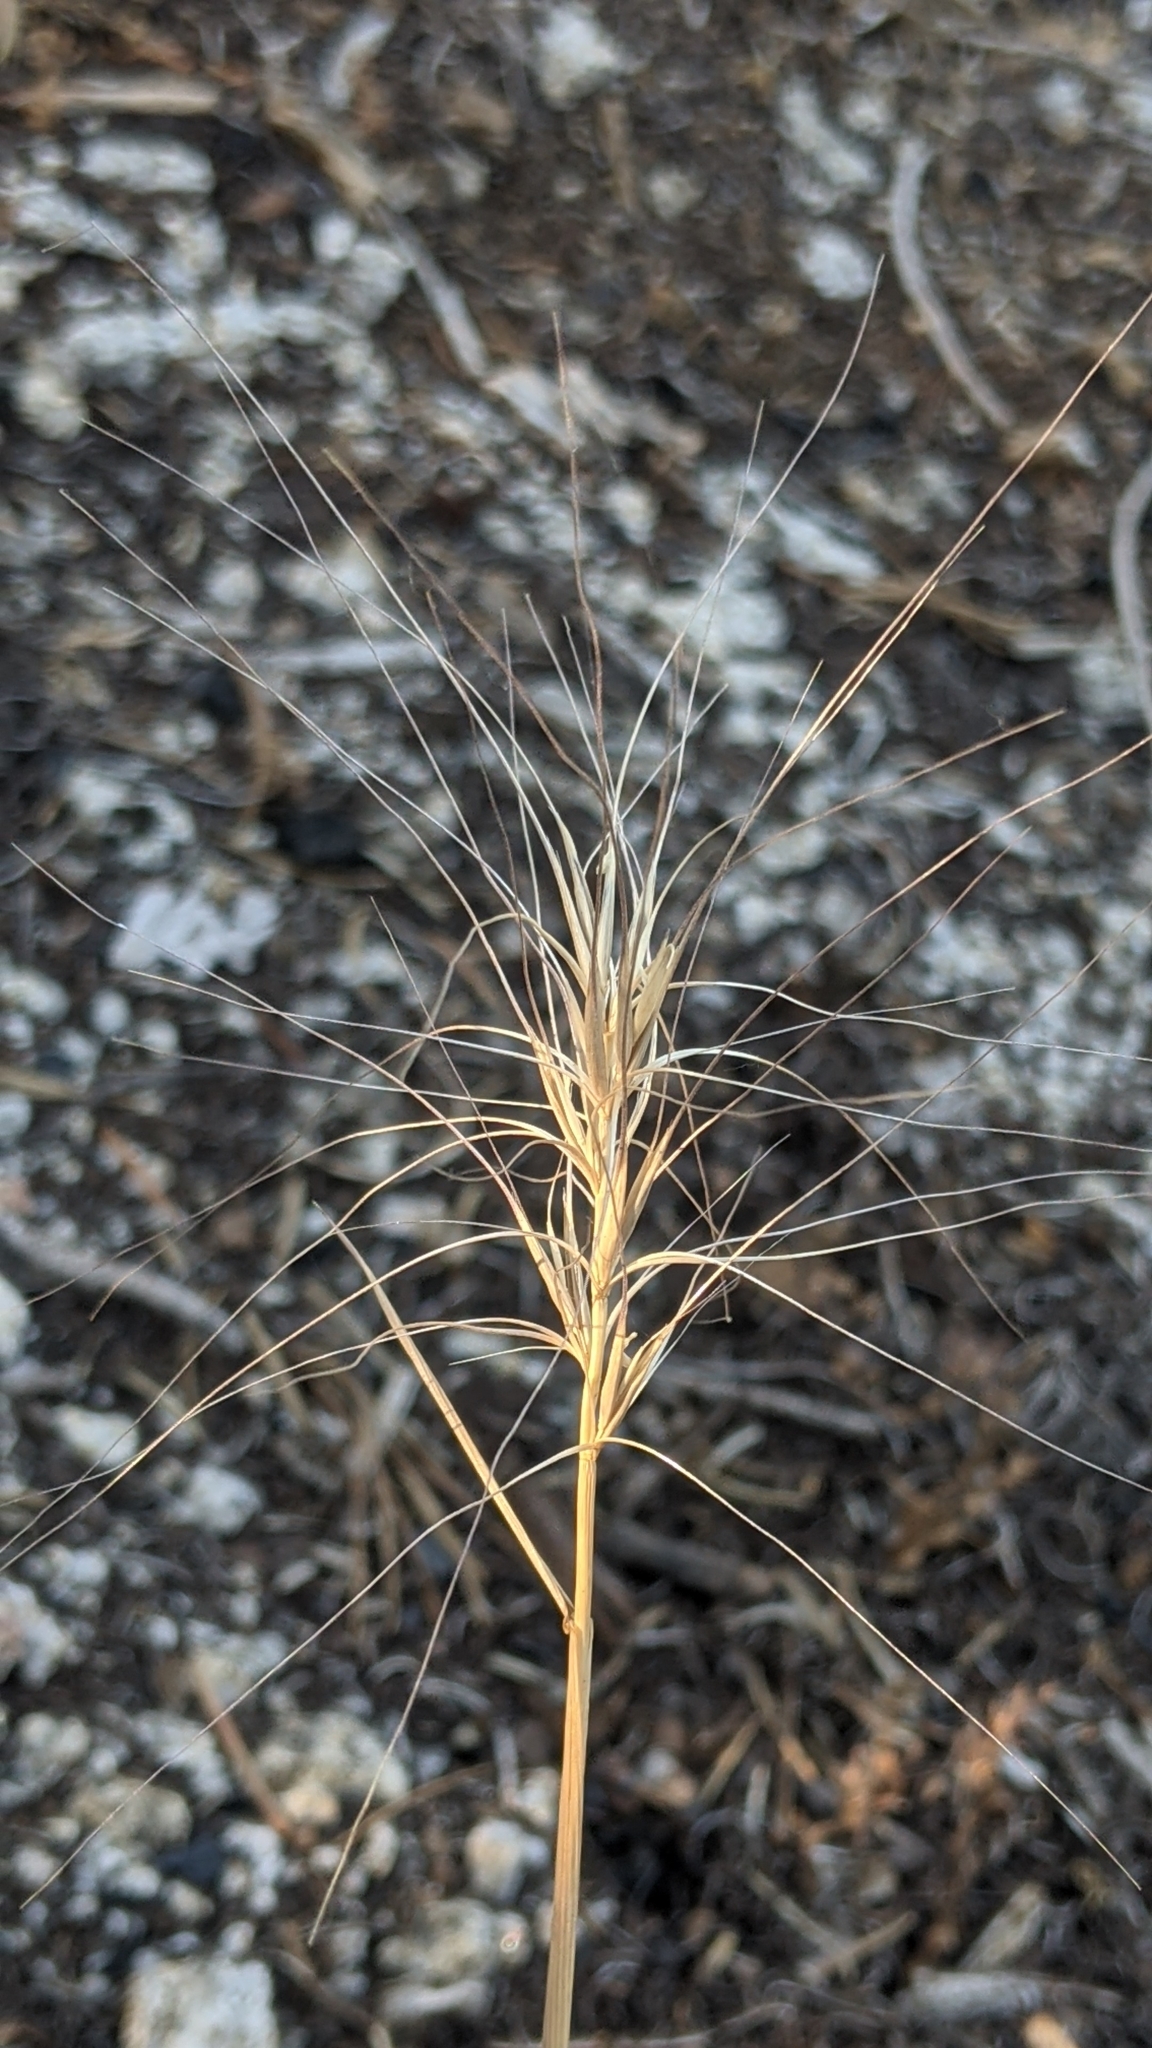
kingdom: Plantae
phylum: Tracheophyta
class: Liliopsida
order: Poales
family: Poaceae
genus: Elymus
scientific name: Elymus elymoides
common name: Bottlebrush squirreltail
